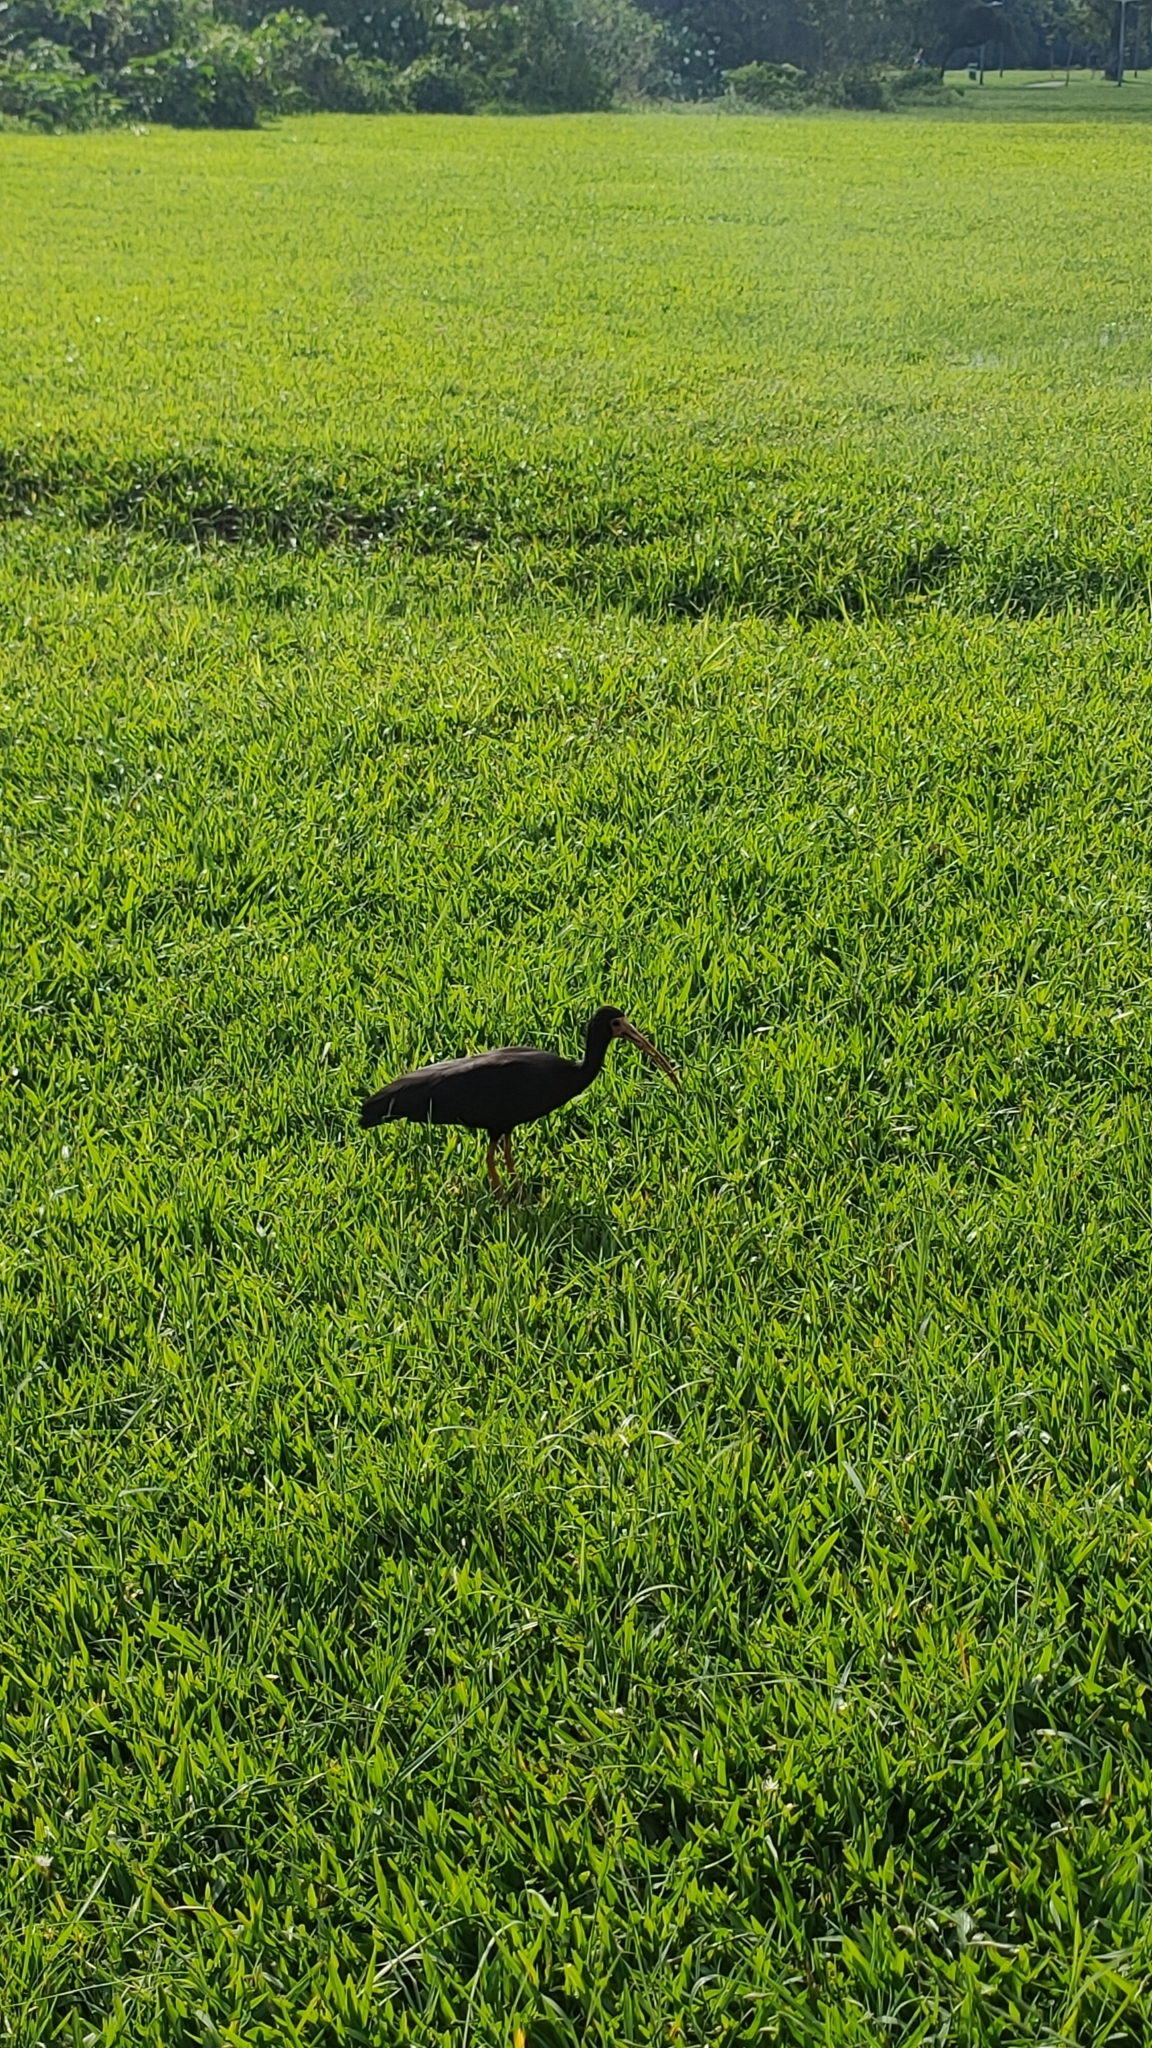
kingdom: Animalia
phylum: Chordata
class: Aves
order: Pelecaniformes
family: Threskiornithidae
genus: Phimosus
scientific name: Phimosus infuscatus
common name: Bare-faced ibis
